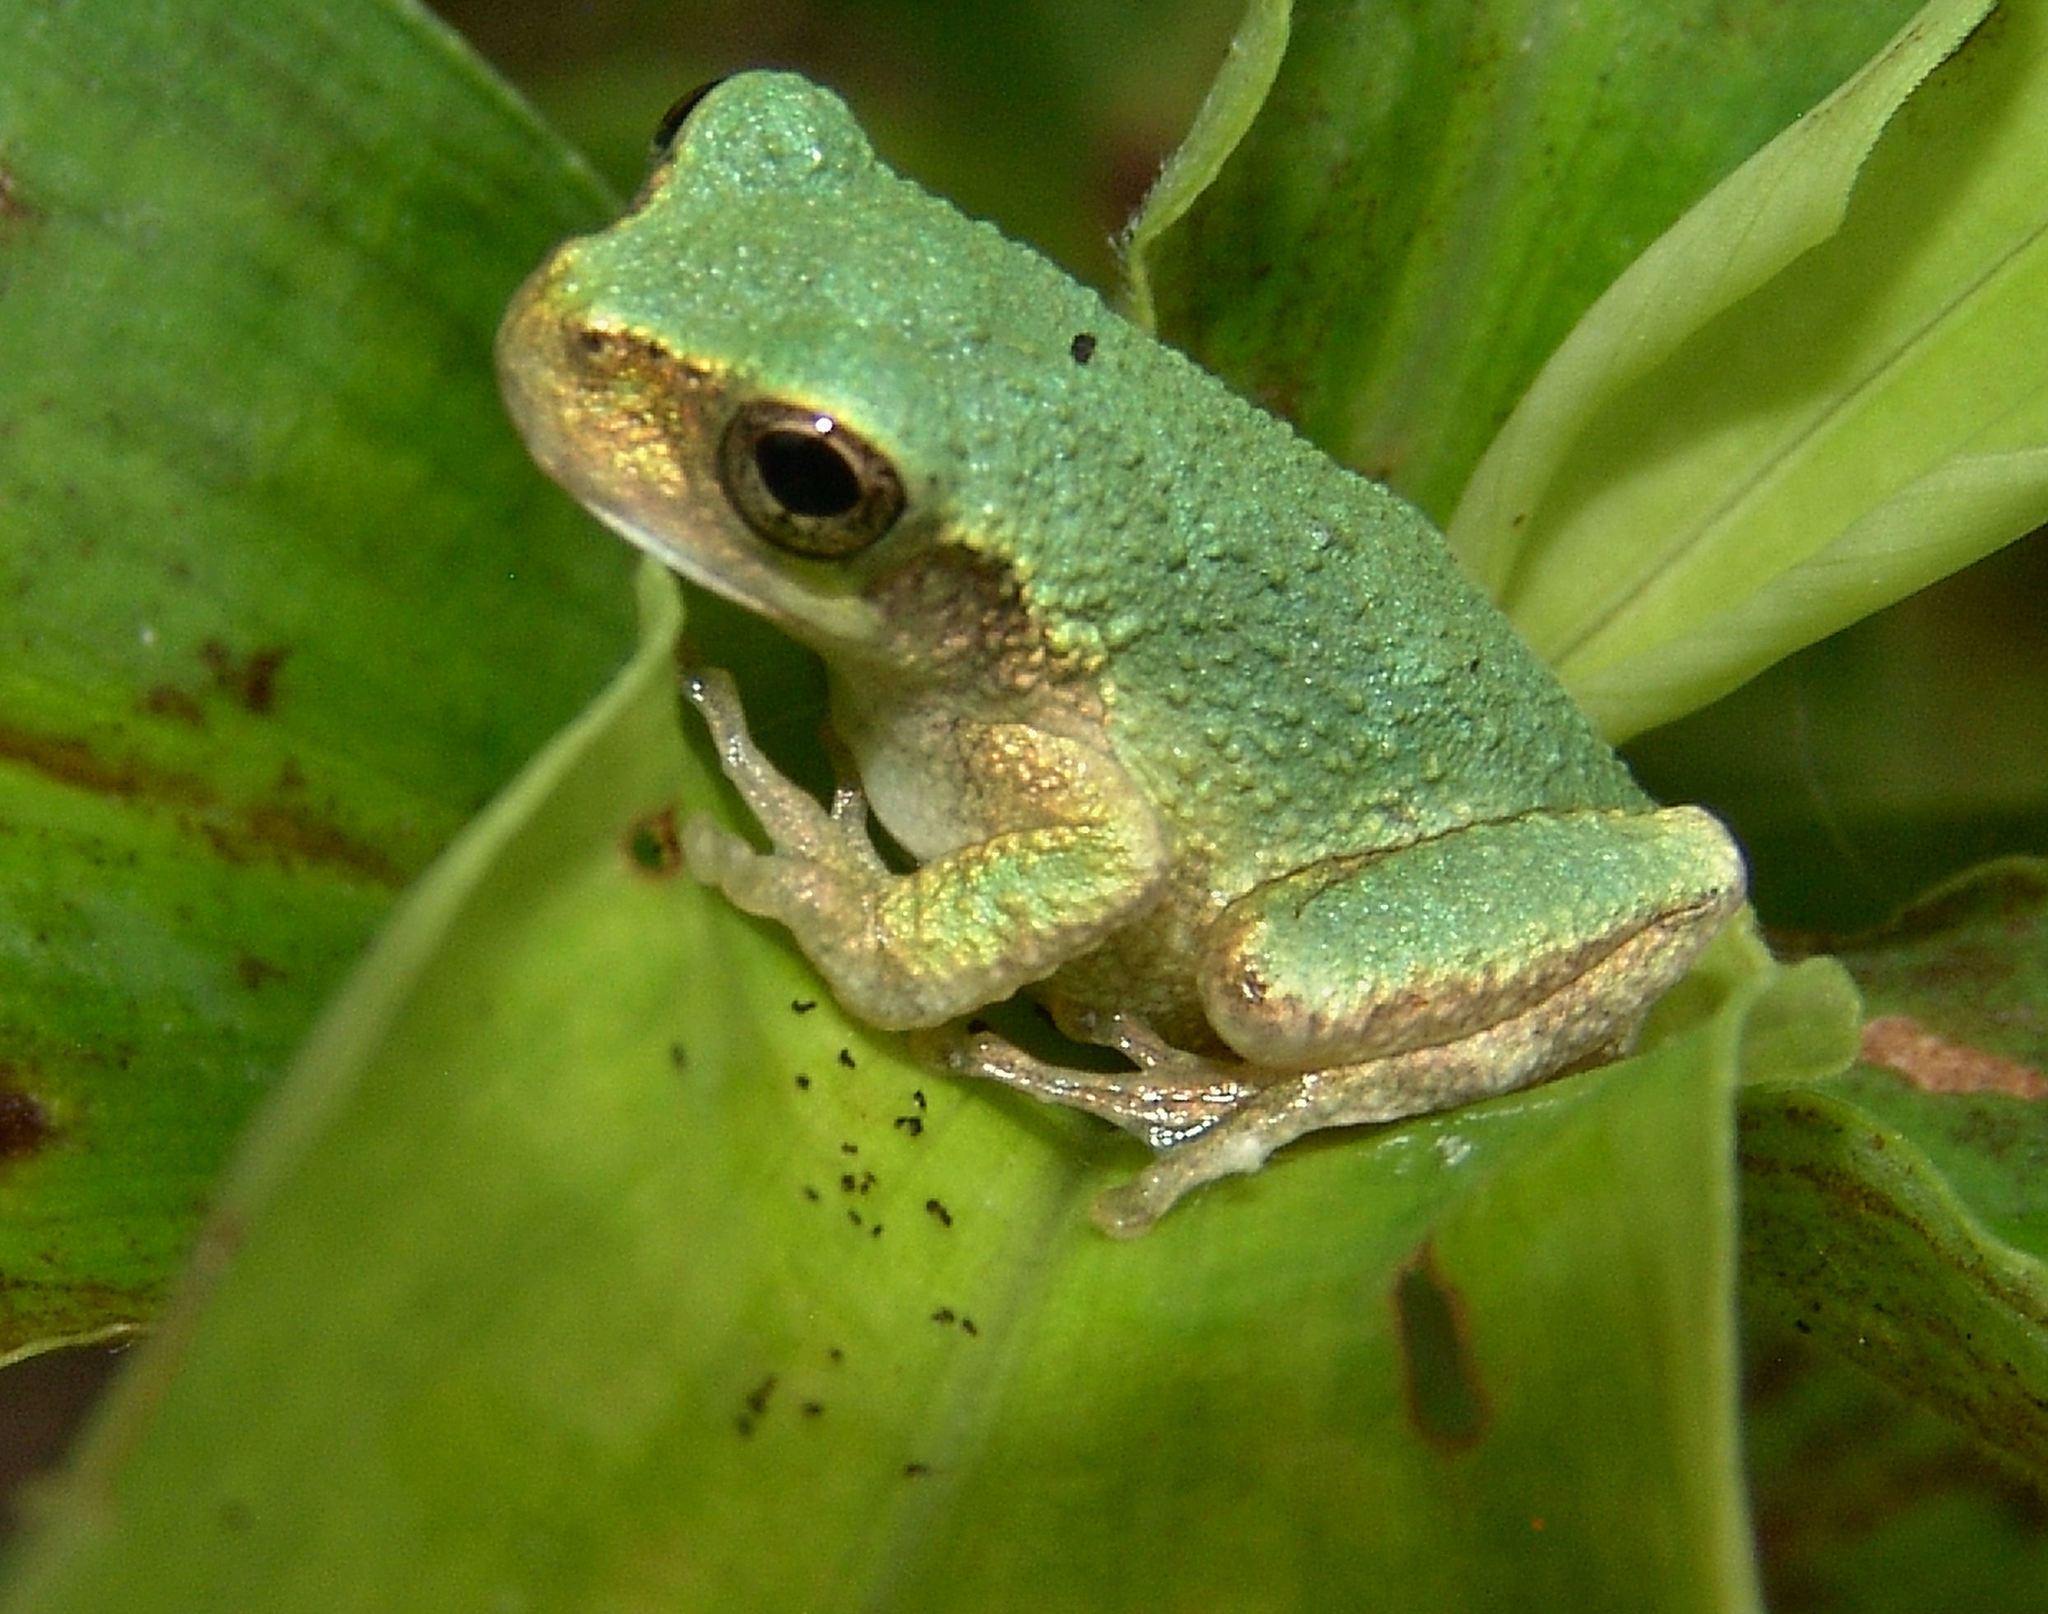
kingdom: Animalia
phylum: Chordata
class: Amphibia
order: Anura
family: Hylidae
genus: Dryophytes
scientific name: Dryophytes chrysoscelis
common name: Cope's gray treefrog
